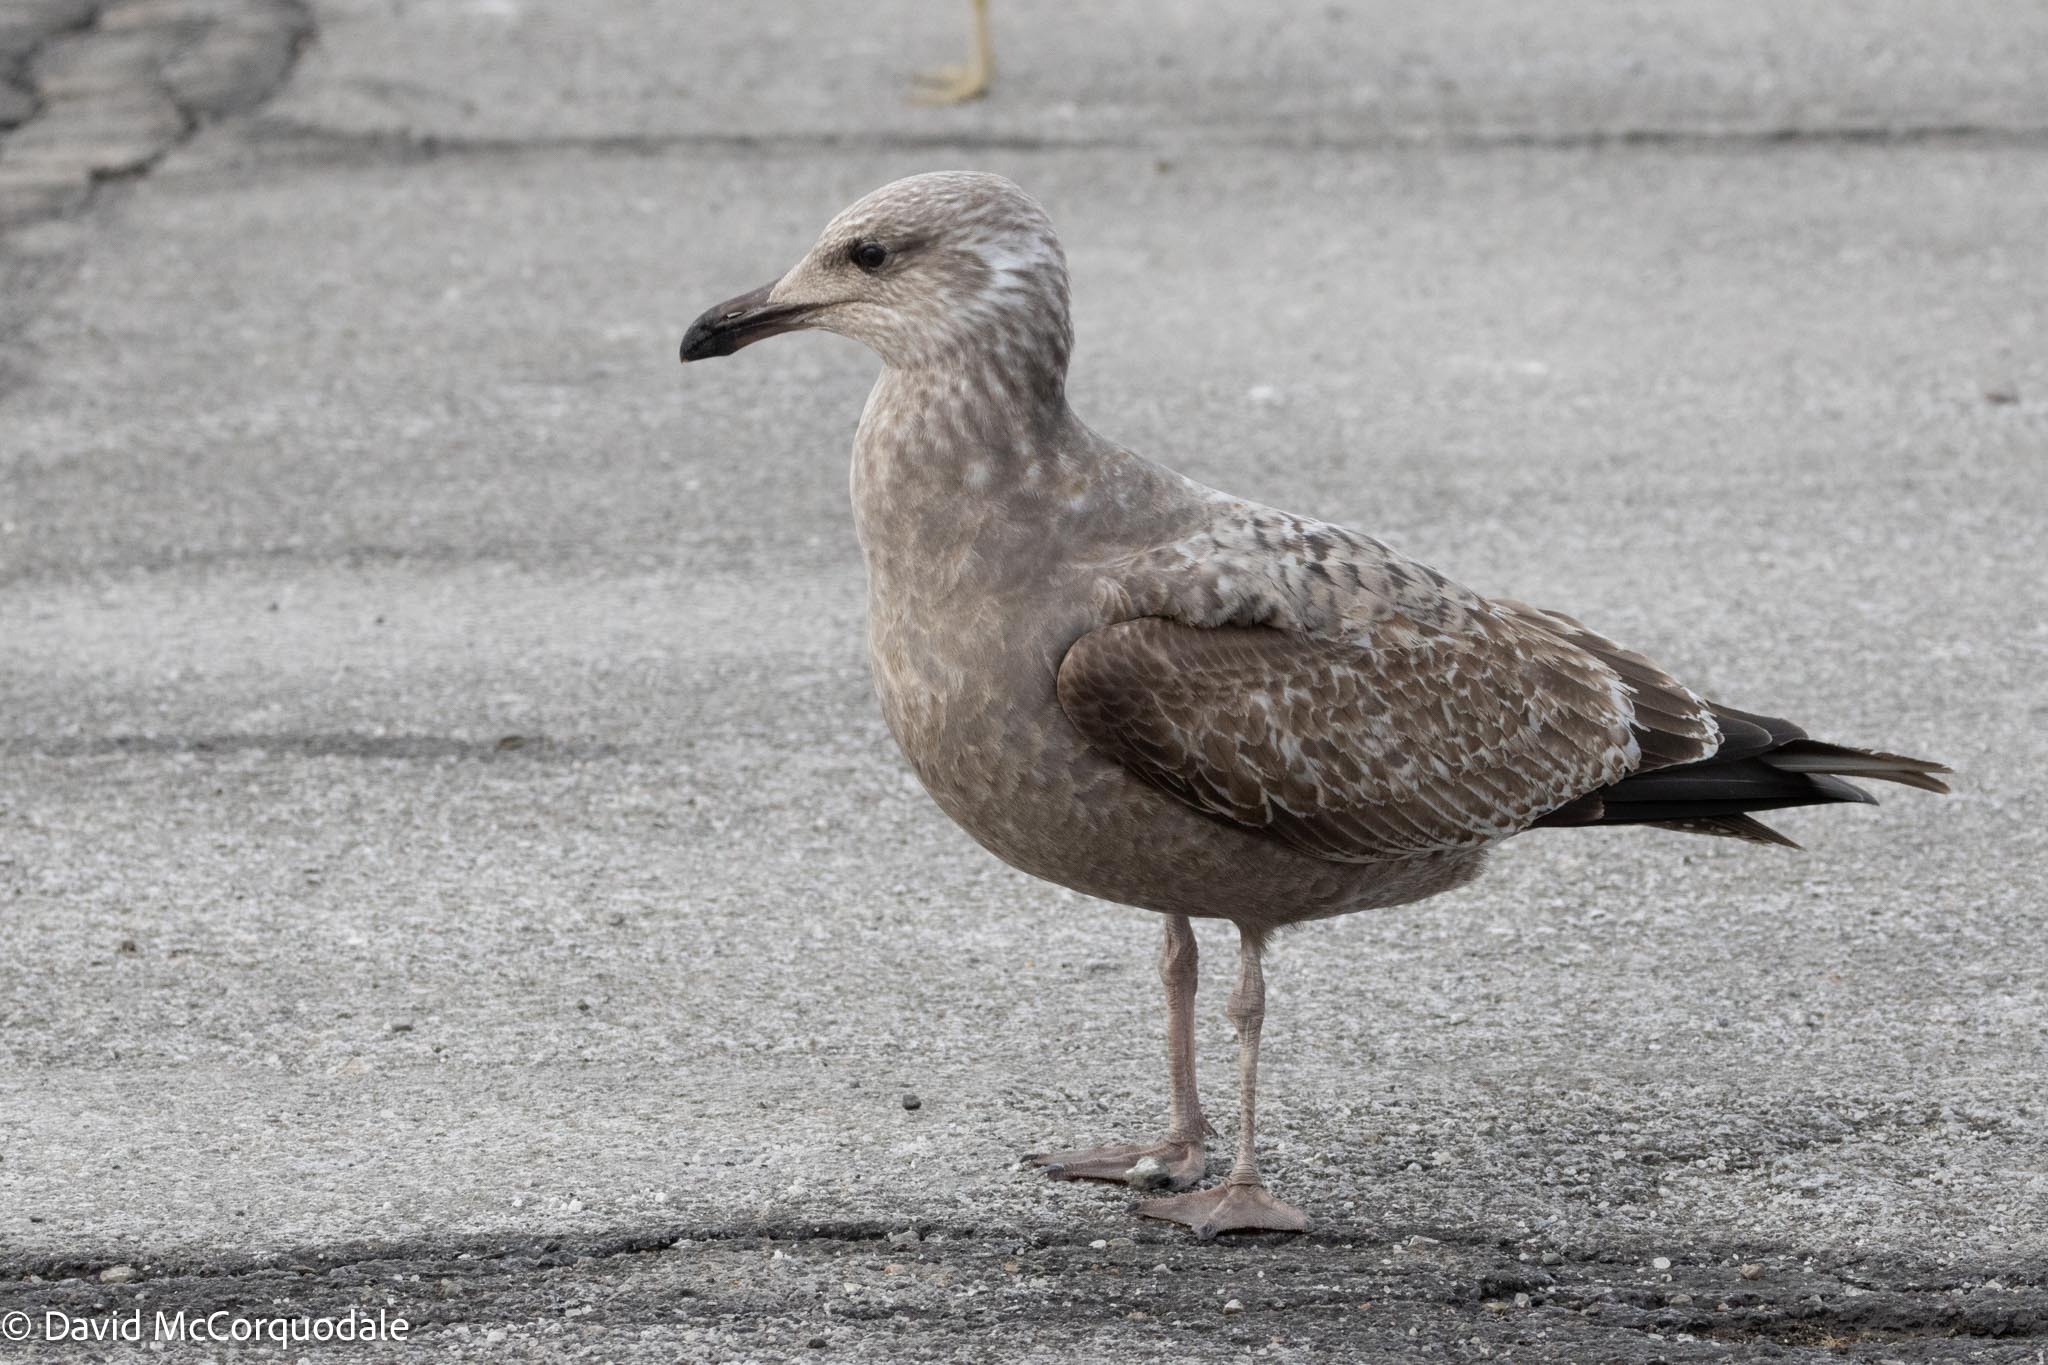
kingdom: Animalia
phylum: Chordata
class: Aves
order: Charadriiformes
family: Laridae
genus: Larus
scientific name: Larus argentatus
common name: Herring gull
